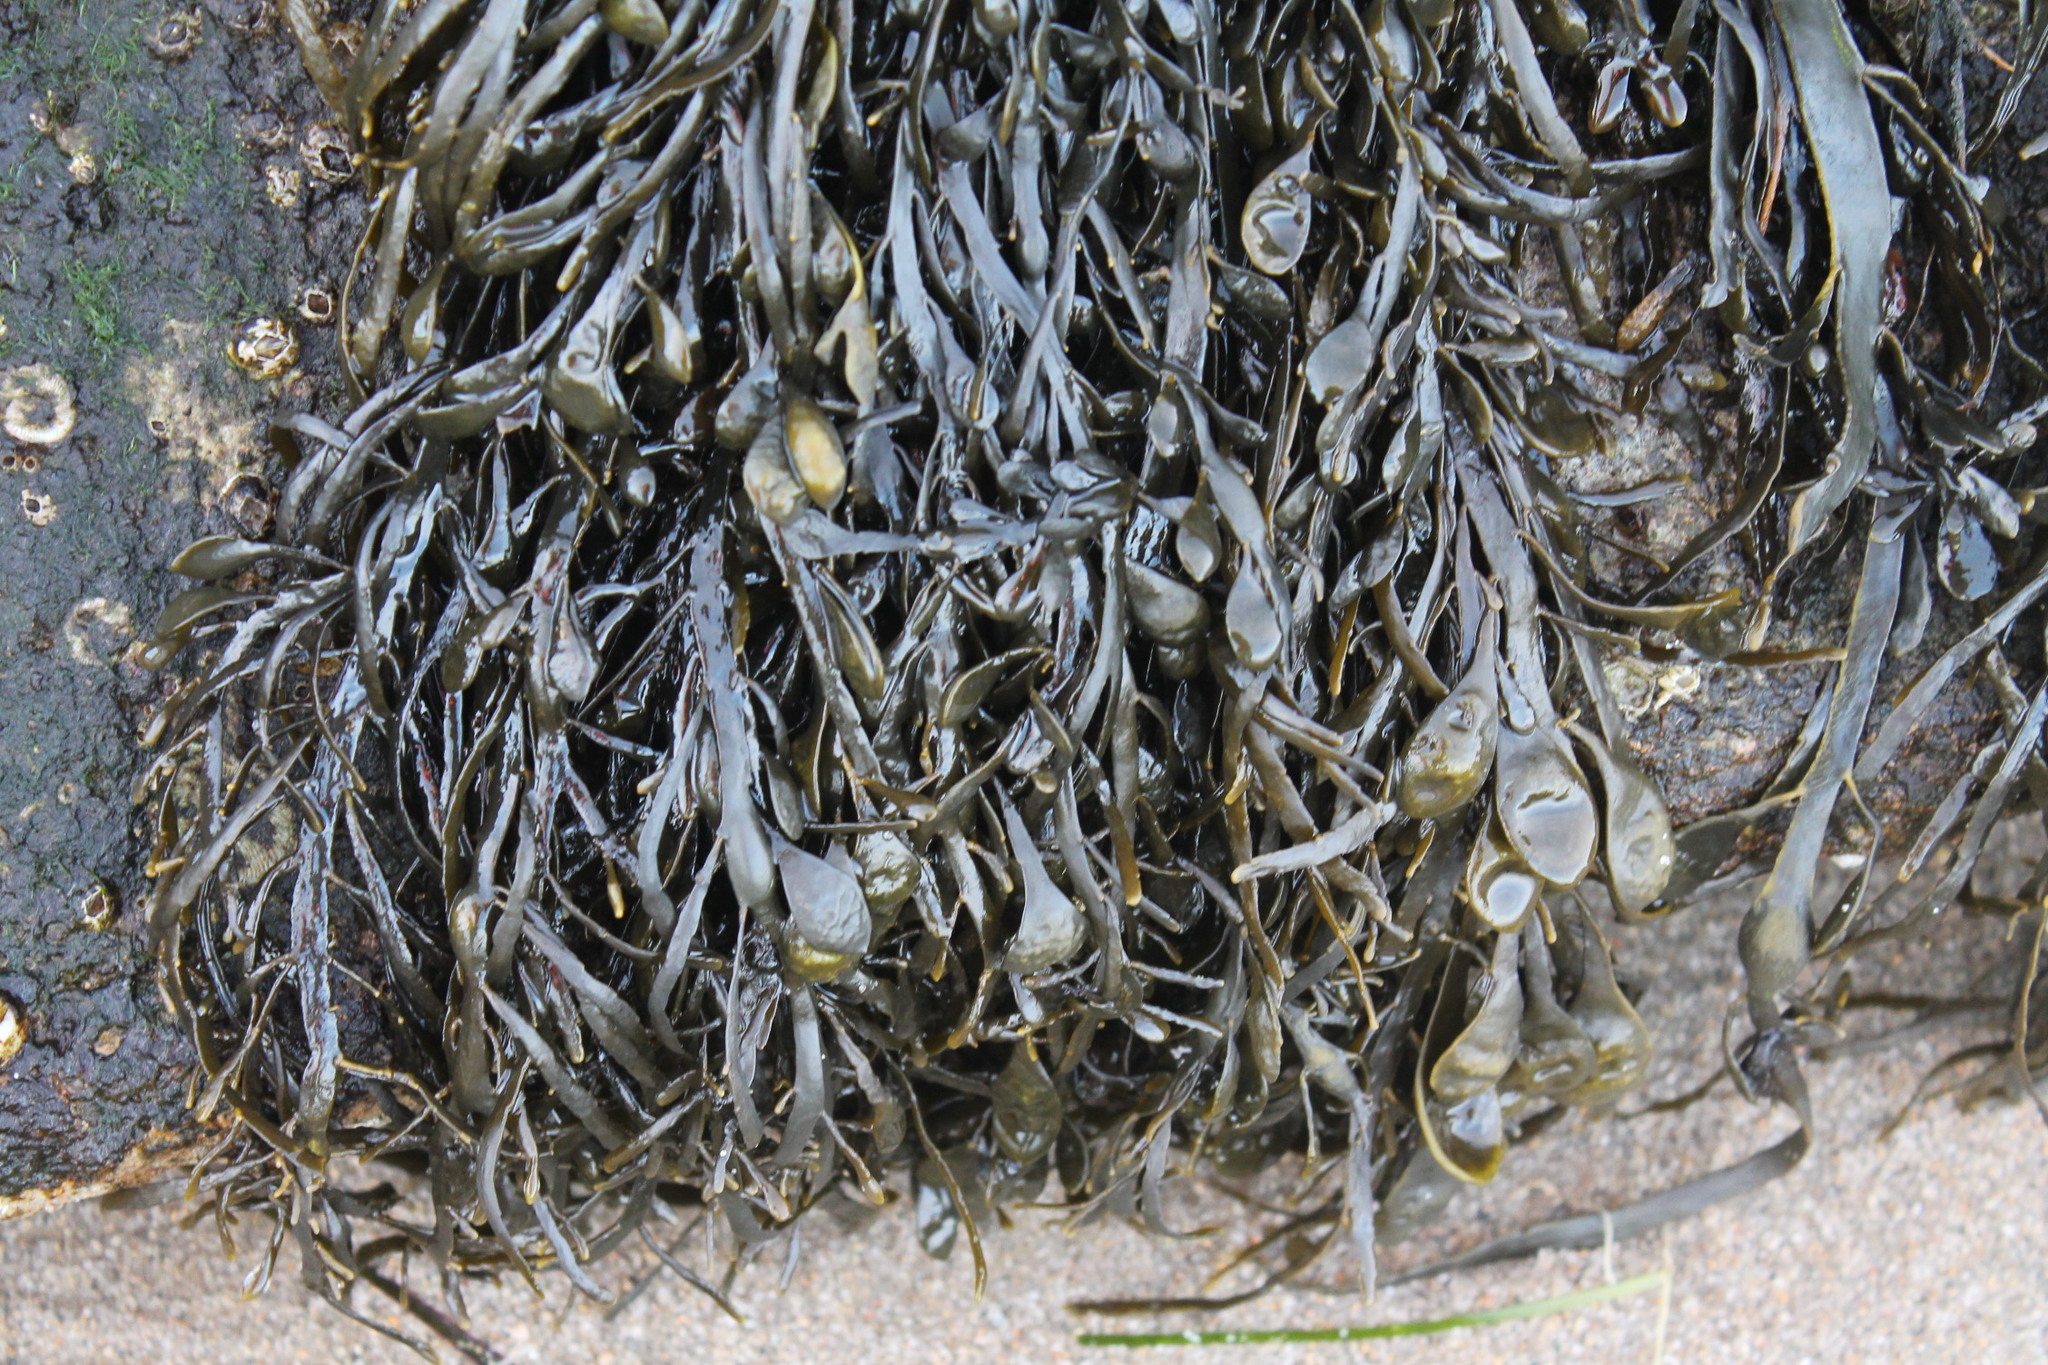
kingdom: Chromista
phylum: Ochrophyta
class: Phaeophyceae
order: Fucales
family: Fucaceae
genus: Ascophyllum
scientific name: Ascophyllum nodosum
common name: Knotted wrack
